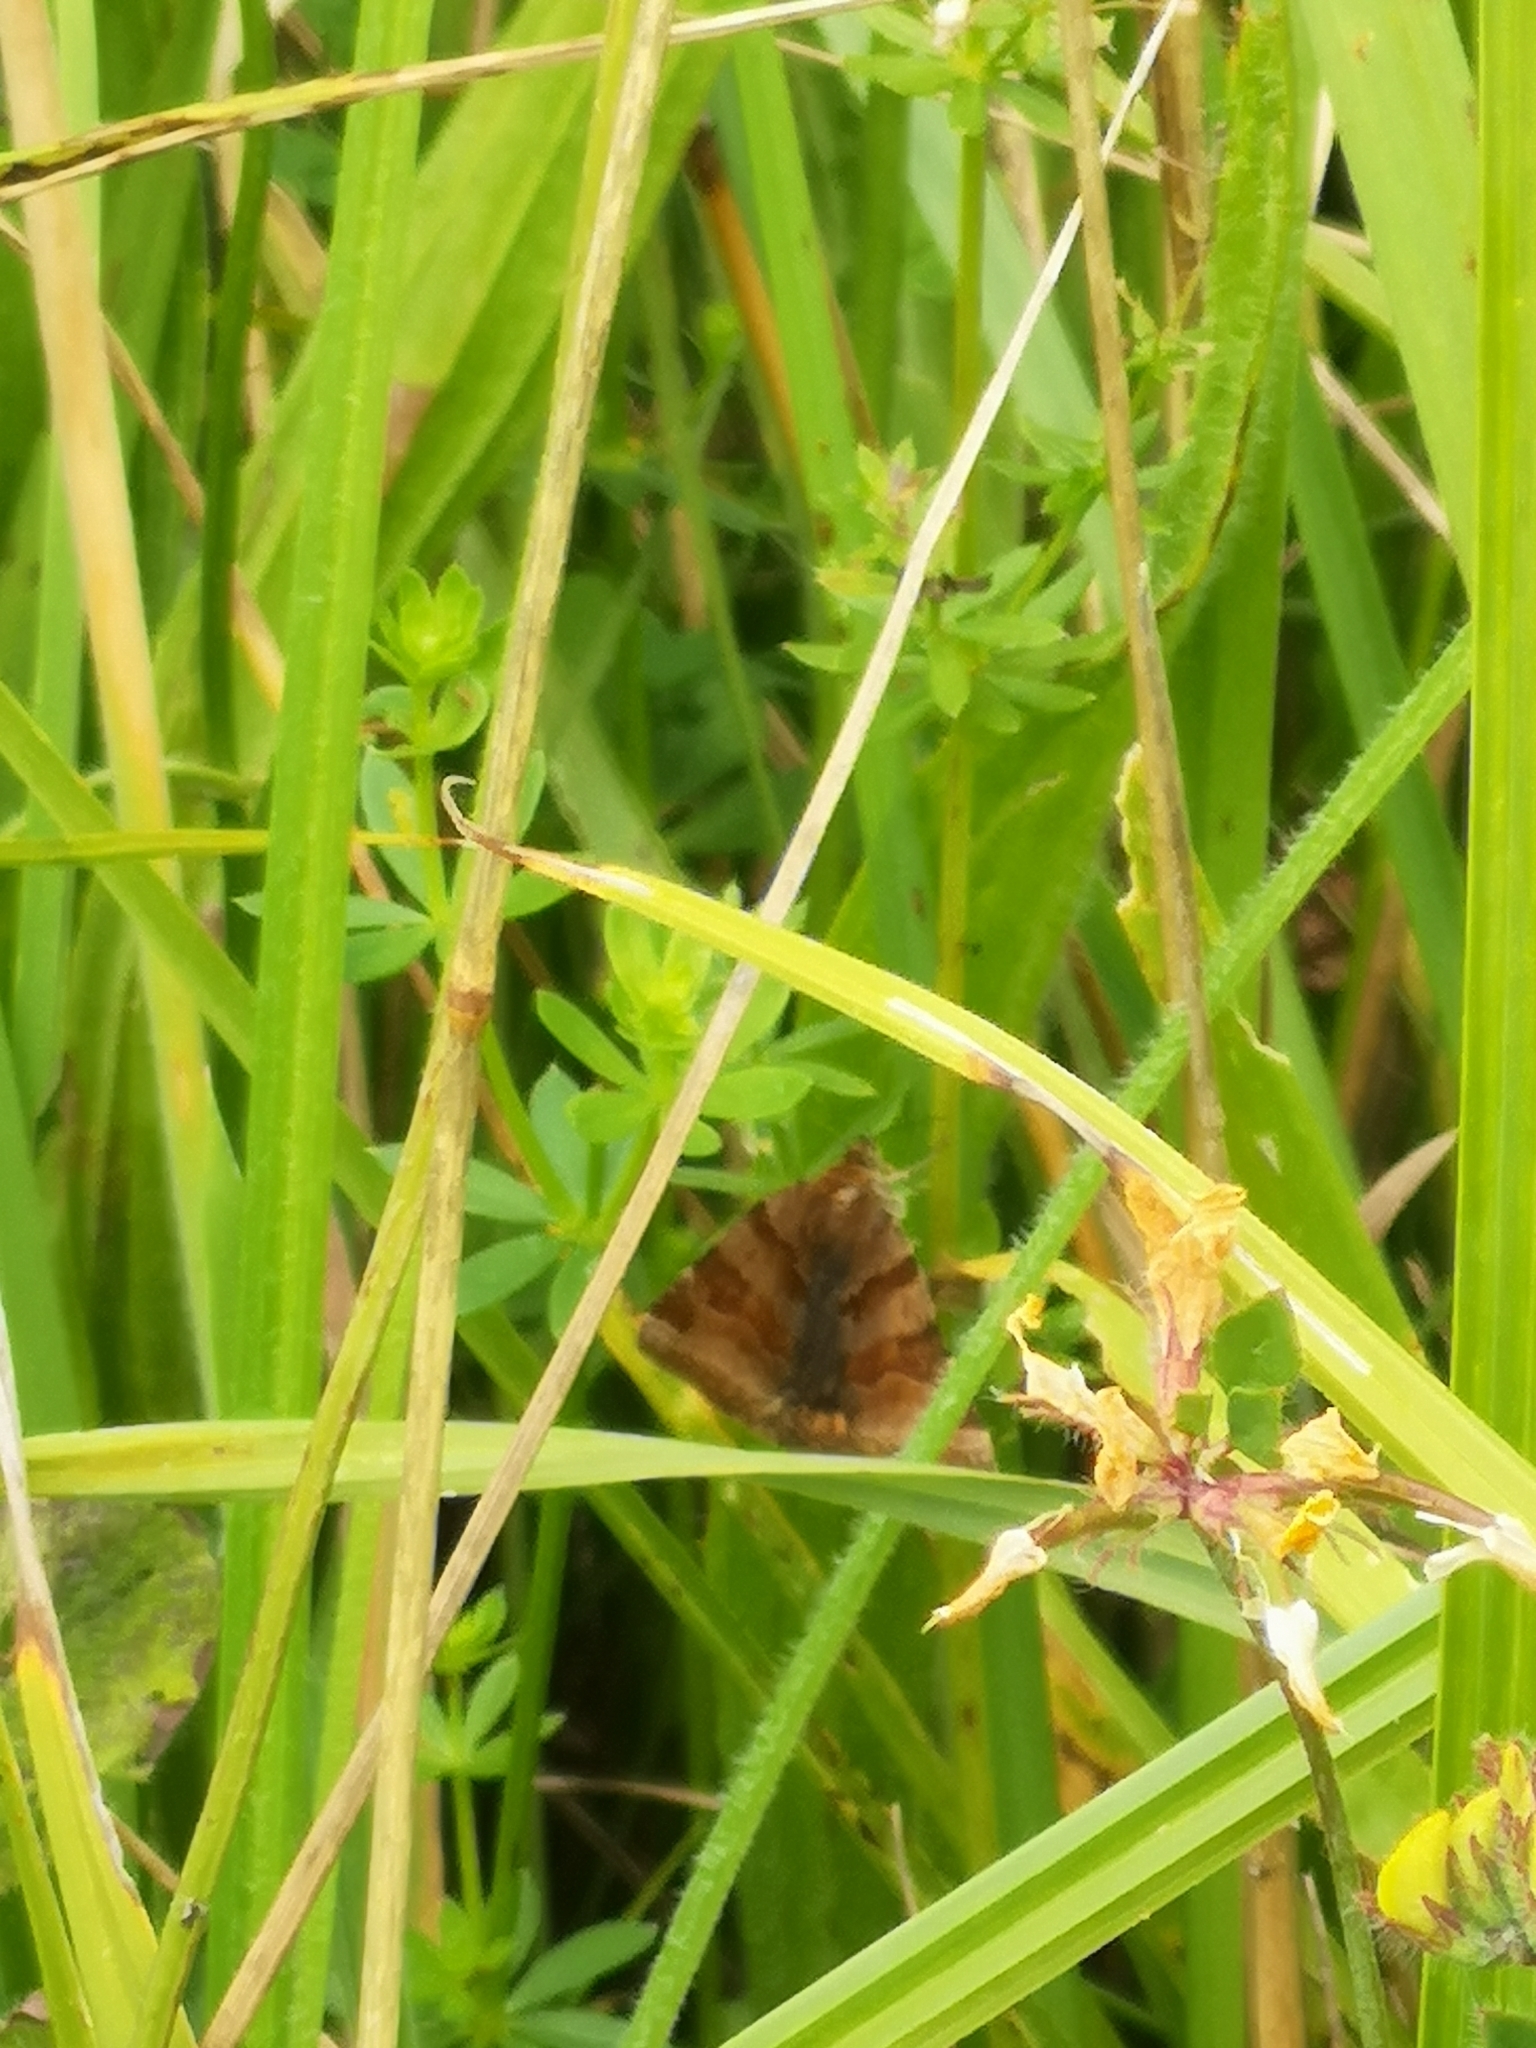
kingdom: Animalia
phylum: Arthropoda
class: Insecta
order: Lepidoptera
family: Erebidae
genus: Euclidia
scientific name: Euclidia glyphica
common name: Burnet companion
